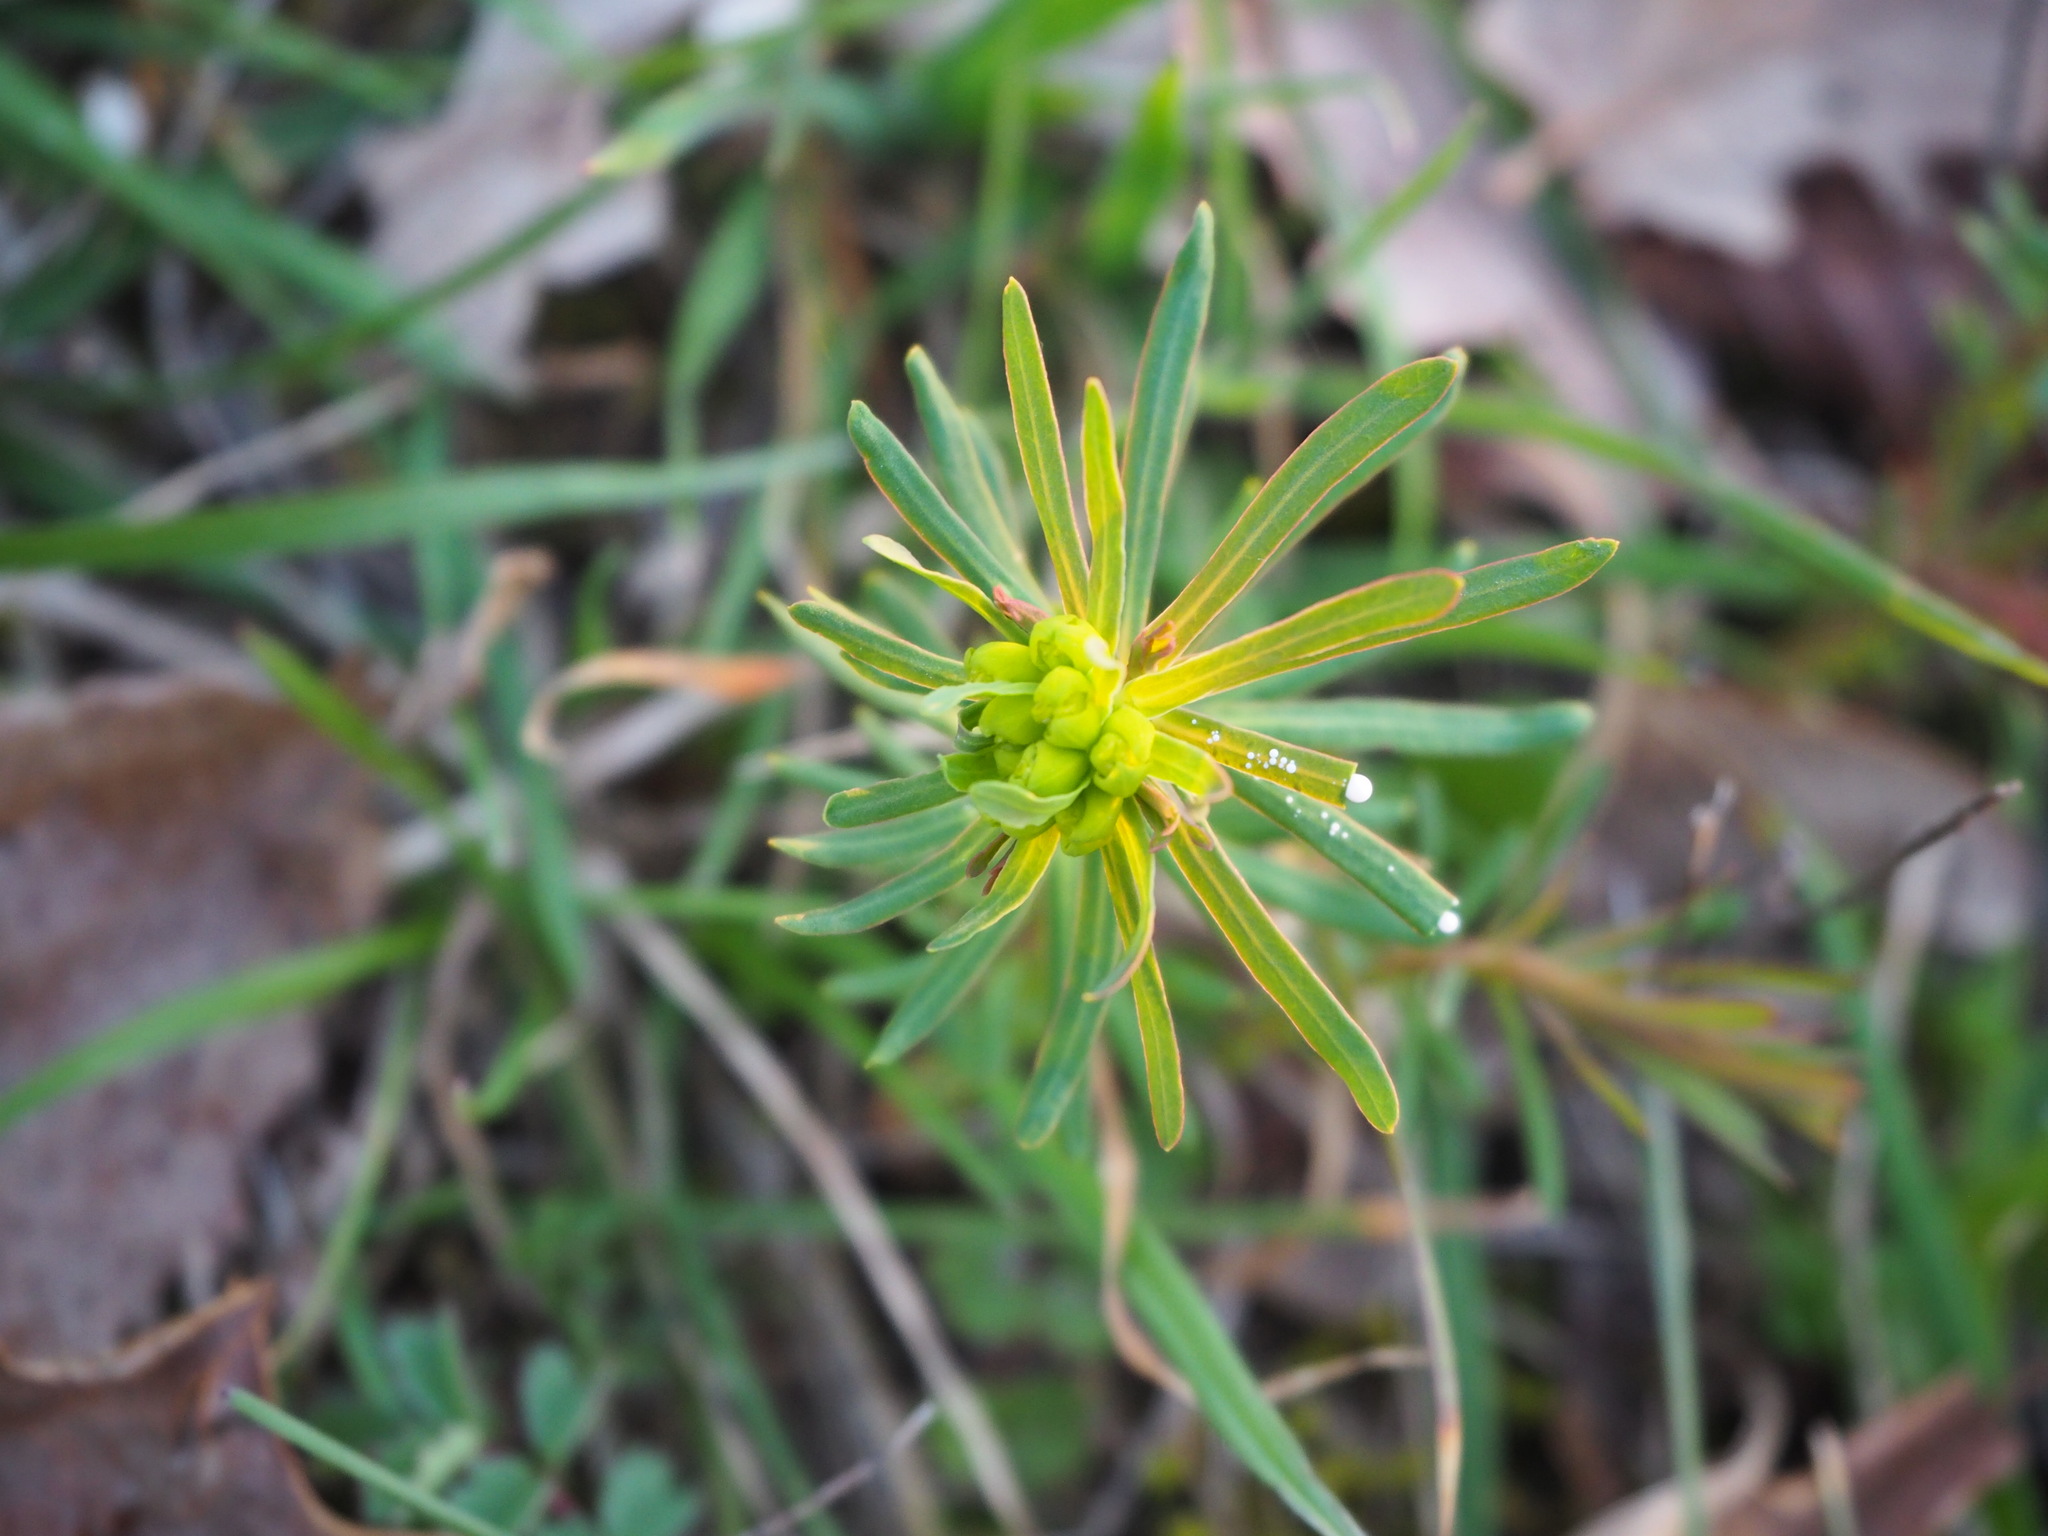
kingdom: Plantae
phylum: Tracheophyta
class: Magnoliopsida
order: Malpighiales
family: Euphorbiaceae
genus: Euphorbia
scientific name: Euphorbia cyparissias
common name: Cypress spurge
